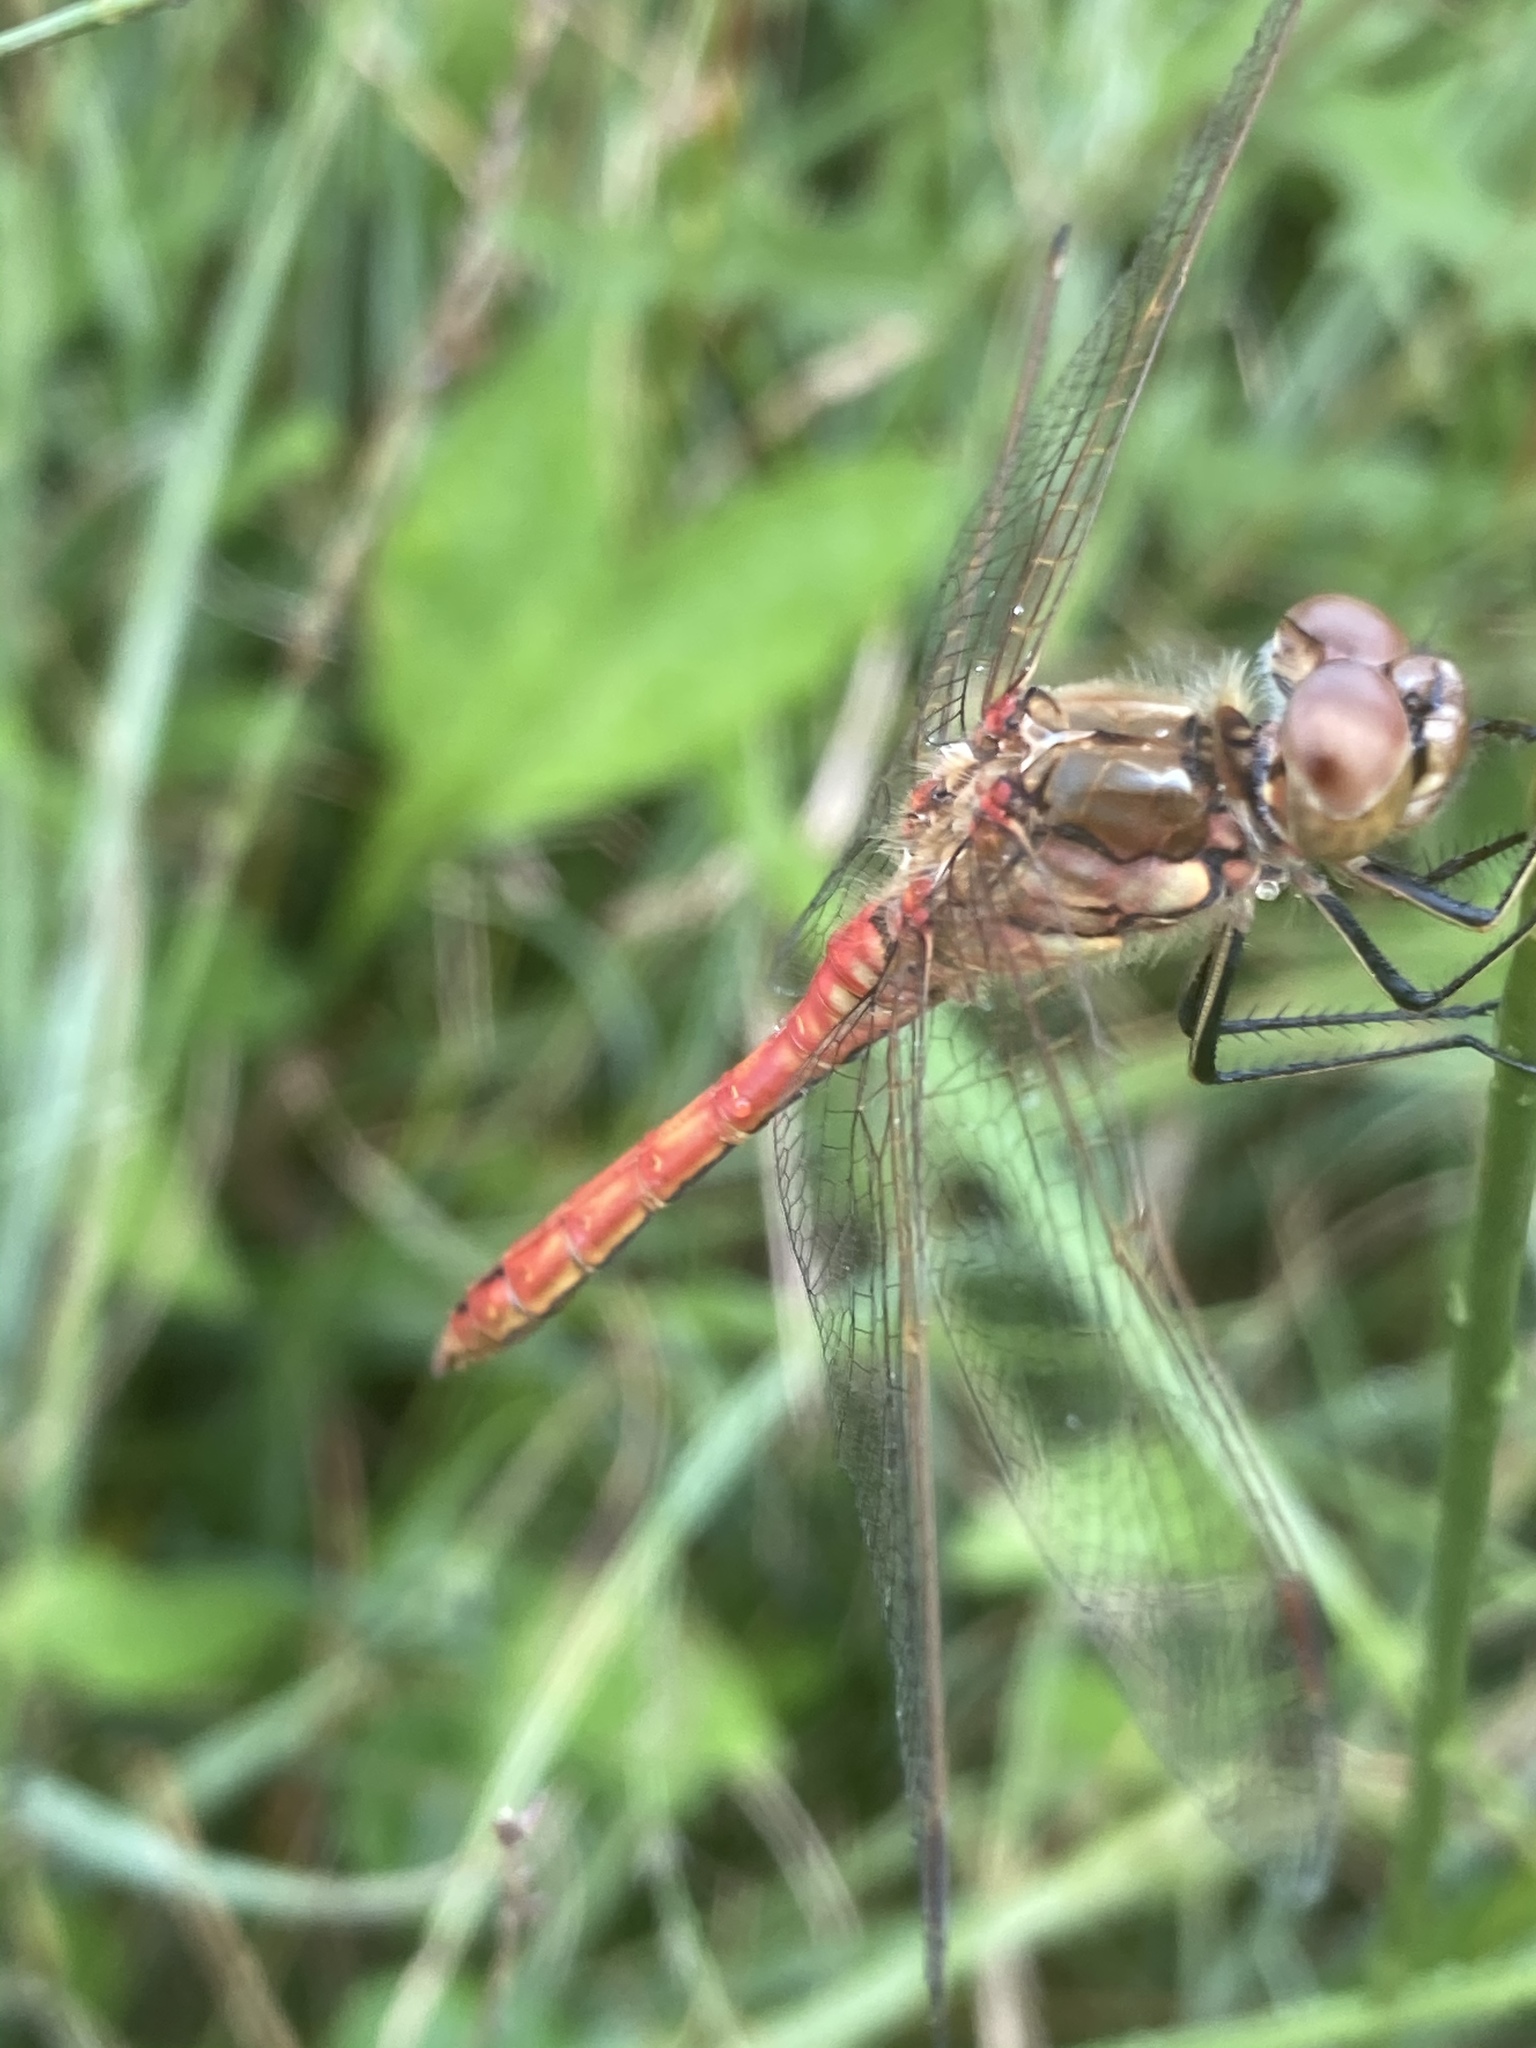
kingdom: Animalia
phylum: Arthropoda
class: Insecta
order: Odonata
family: Libellulidae
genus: Sympetrum
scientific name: Sympetrum vulgatum
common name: Vagrant darter
